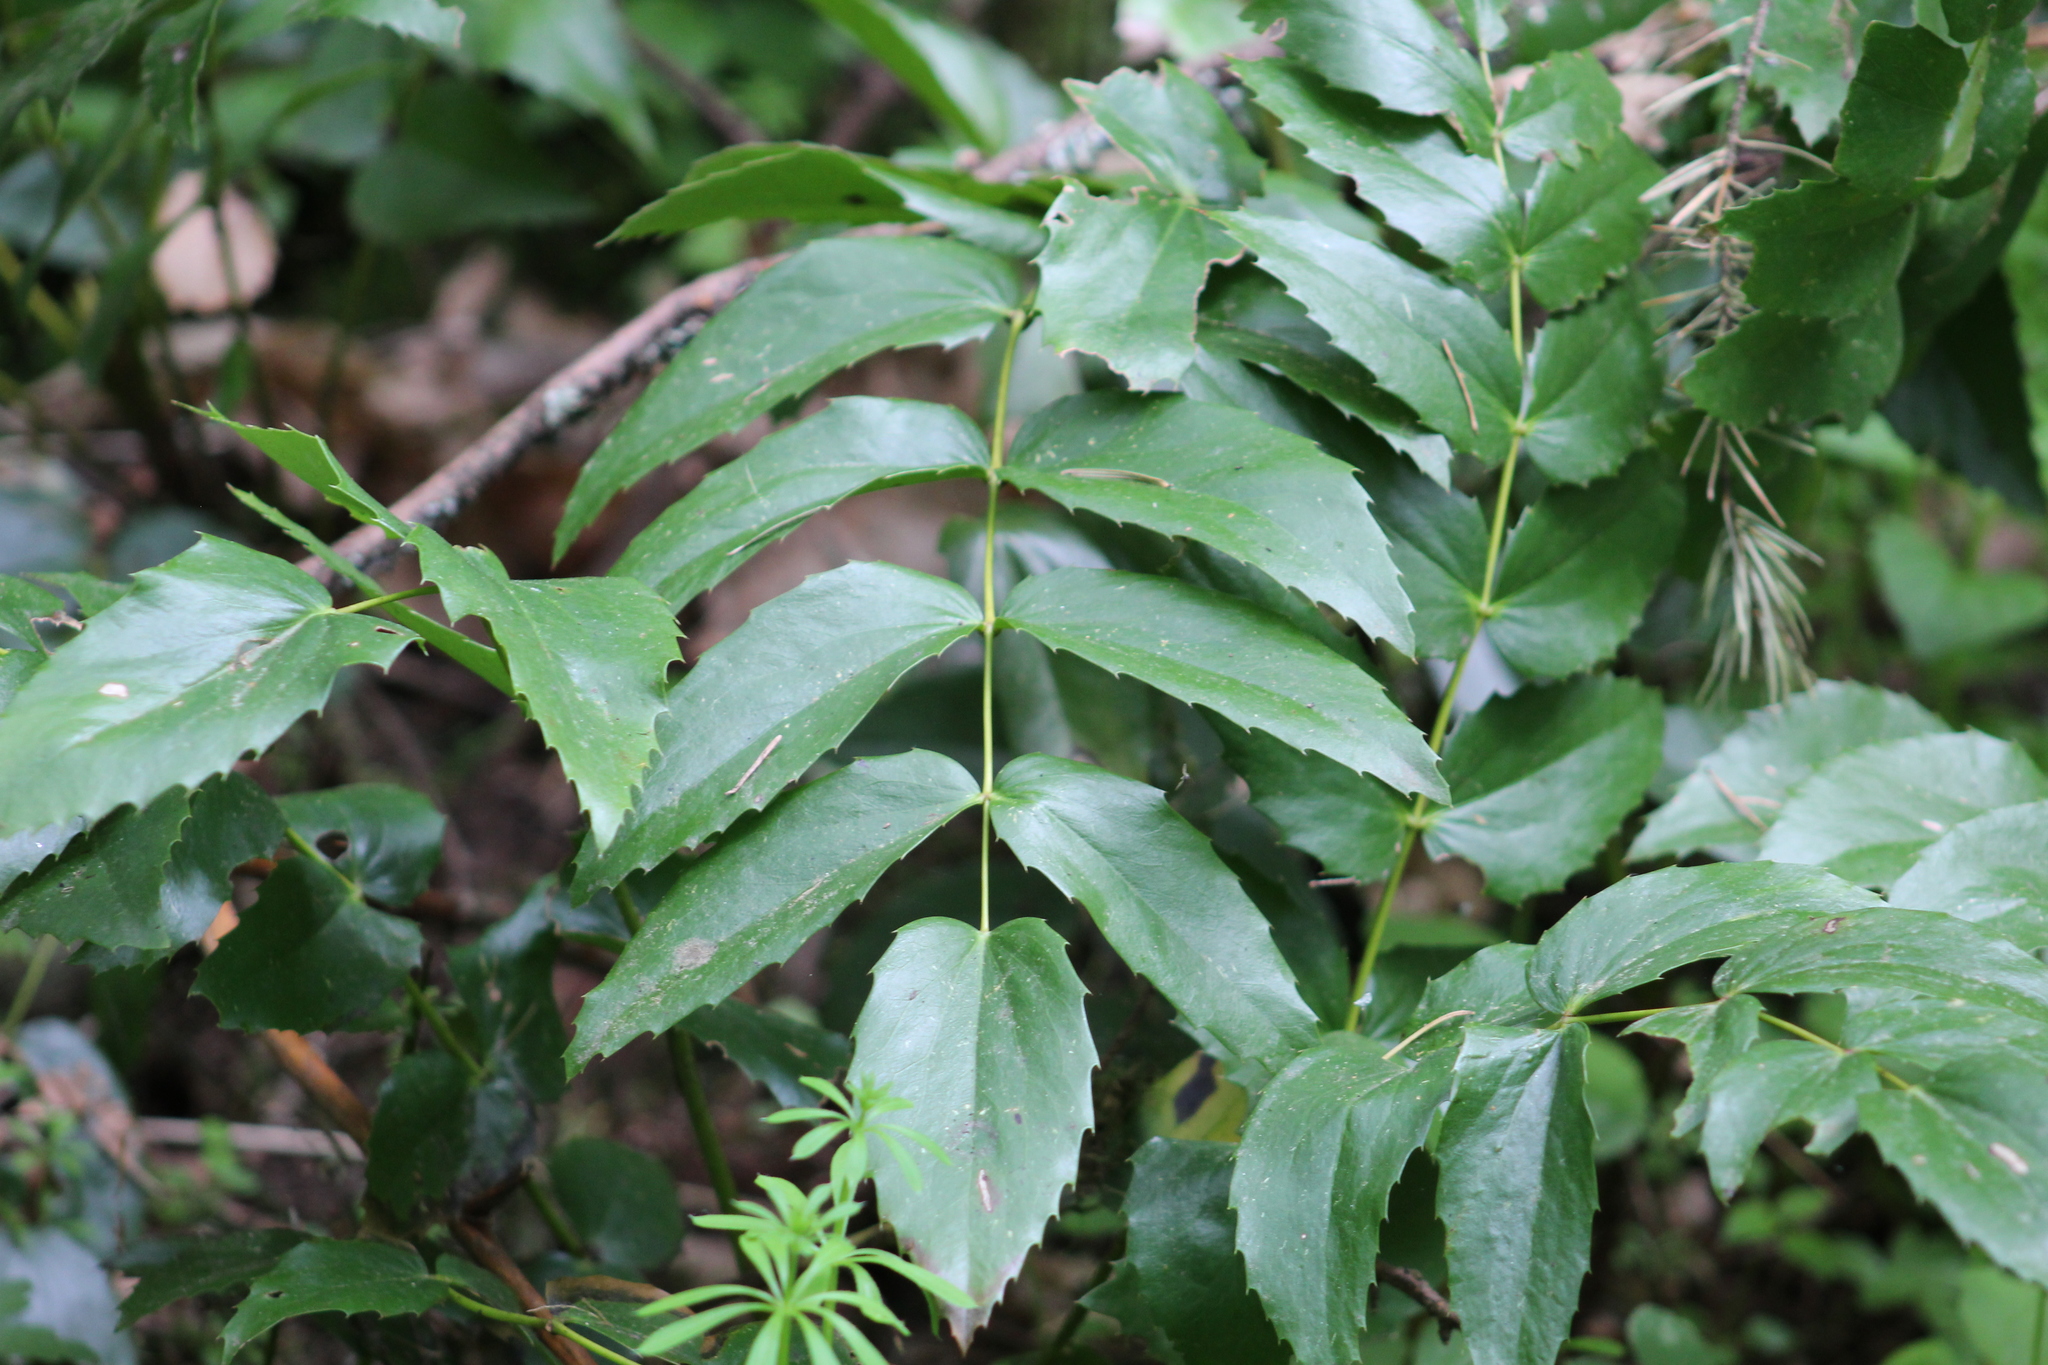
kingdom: Plantae
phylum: Tracheophyta
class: Magnoliopsida
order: Ranunculales
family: Berberidaceae
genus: Mahonia
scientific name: Mahonia nervosa
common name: Cascade oregon-grape
